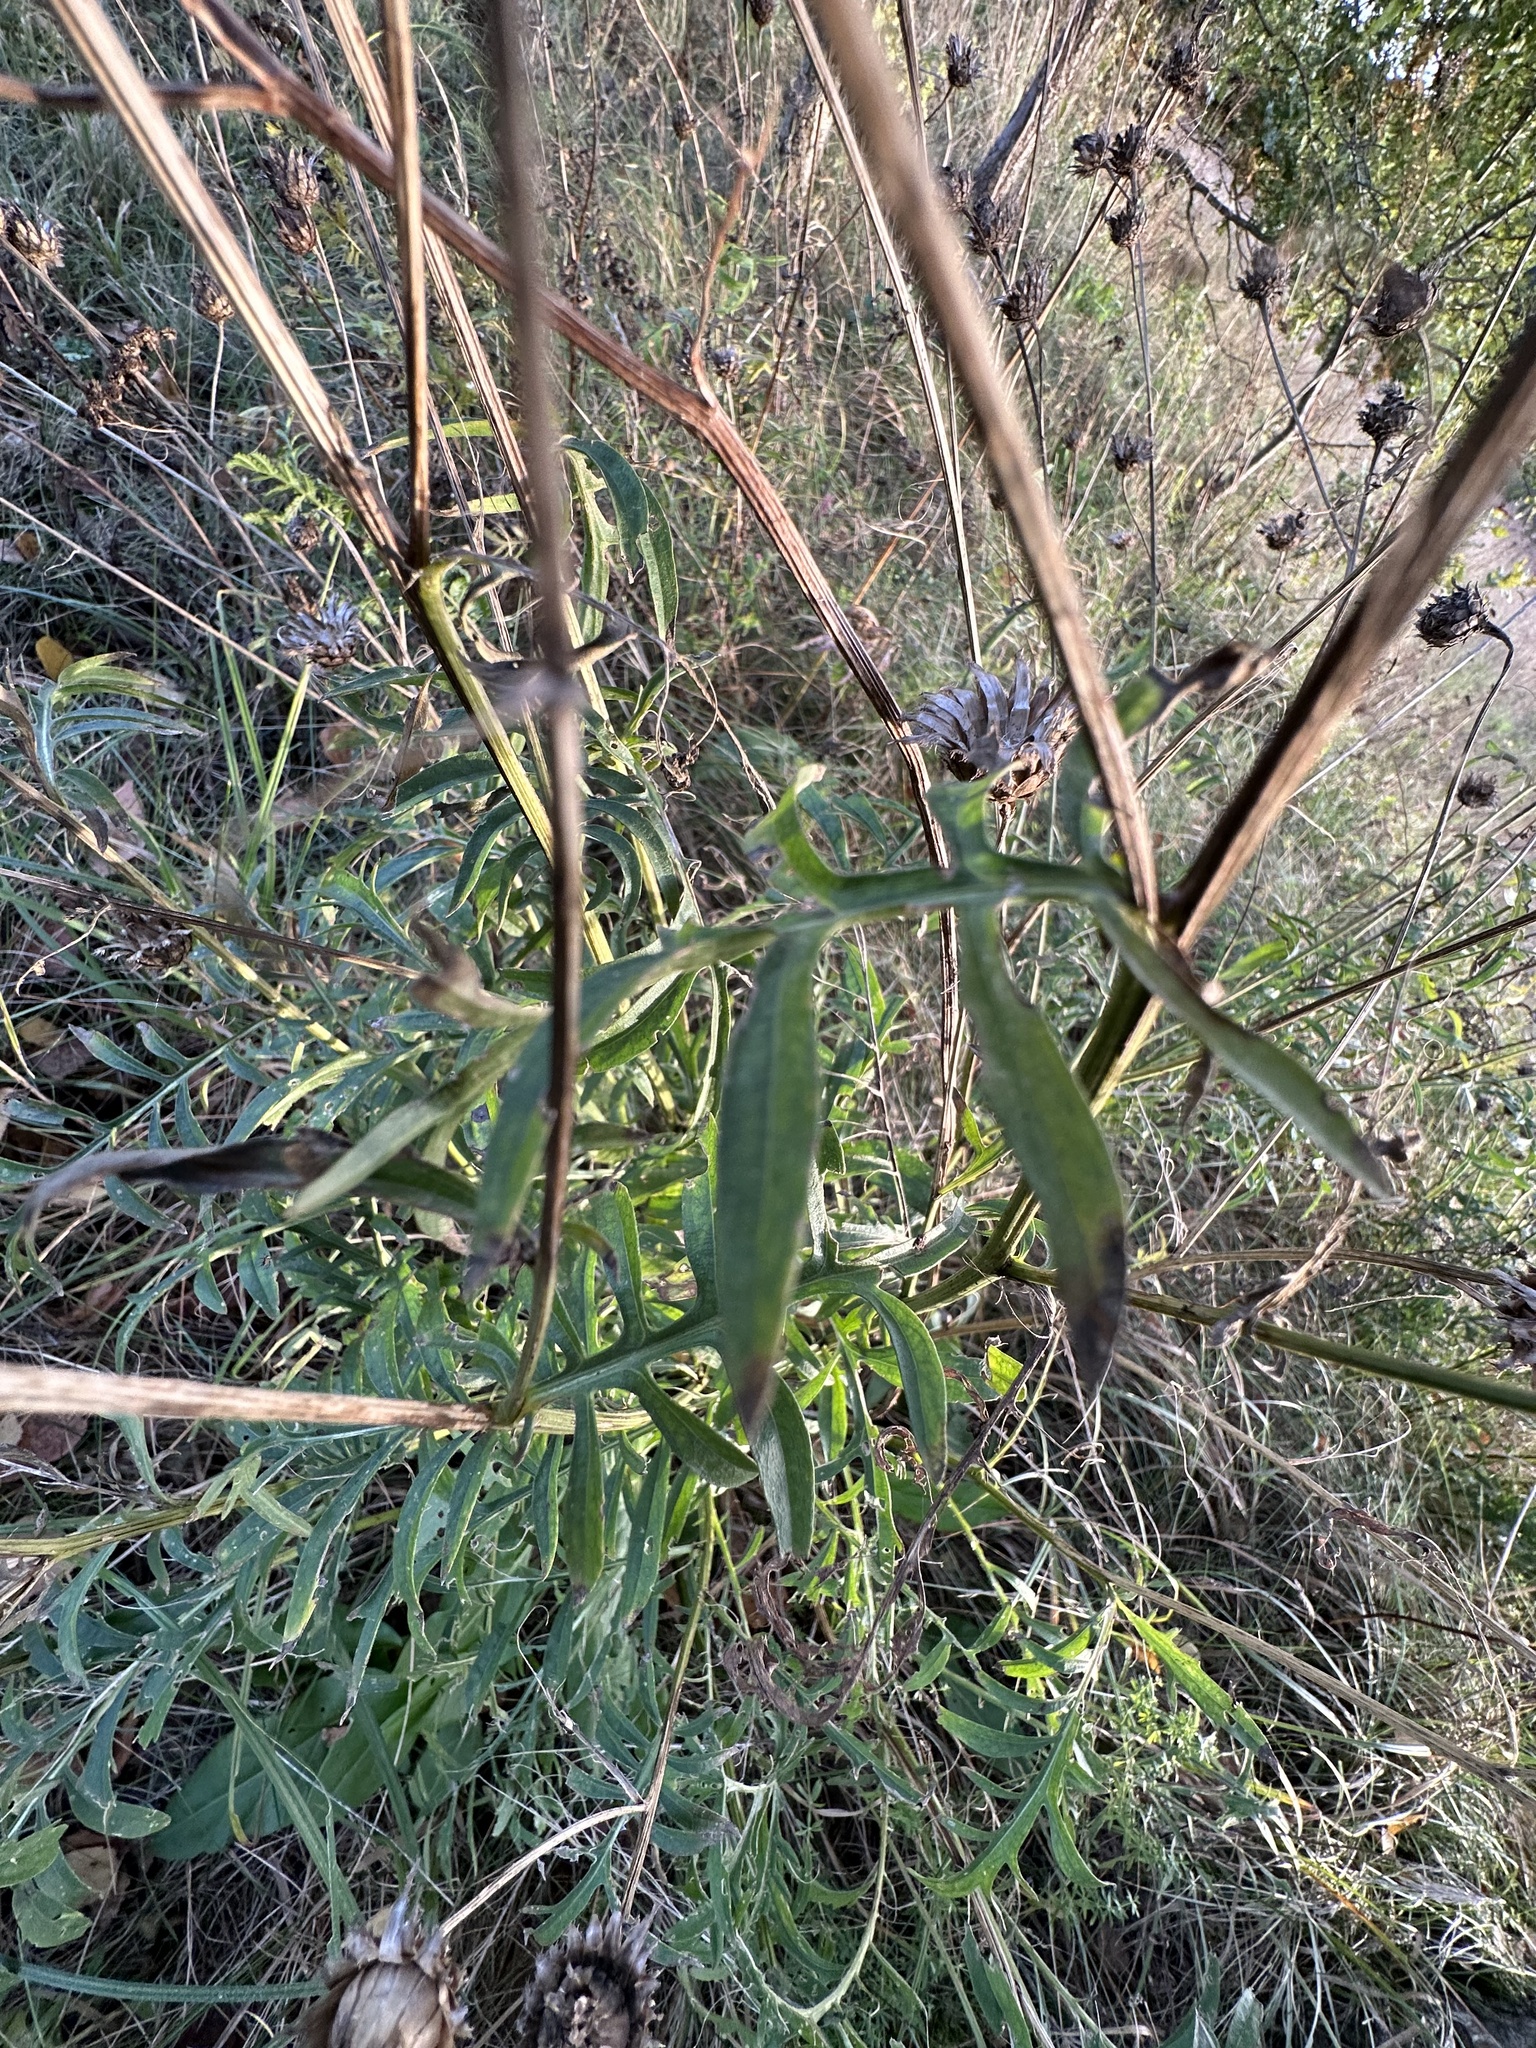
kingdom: Plantae
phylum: Tracheophyta
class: Magnoliopsida
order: Asterales
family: Asteraceae
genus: Centaurea
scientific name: Centaurea scabiosa
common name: Greater knapweed
